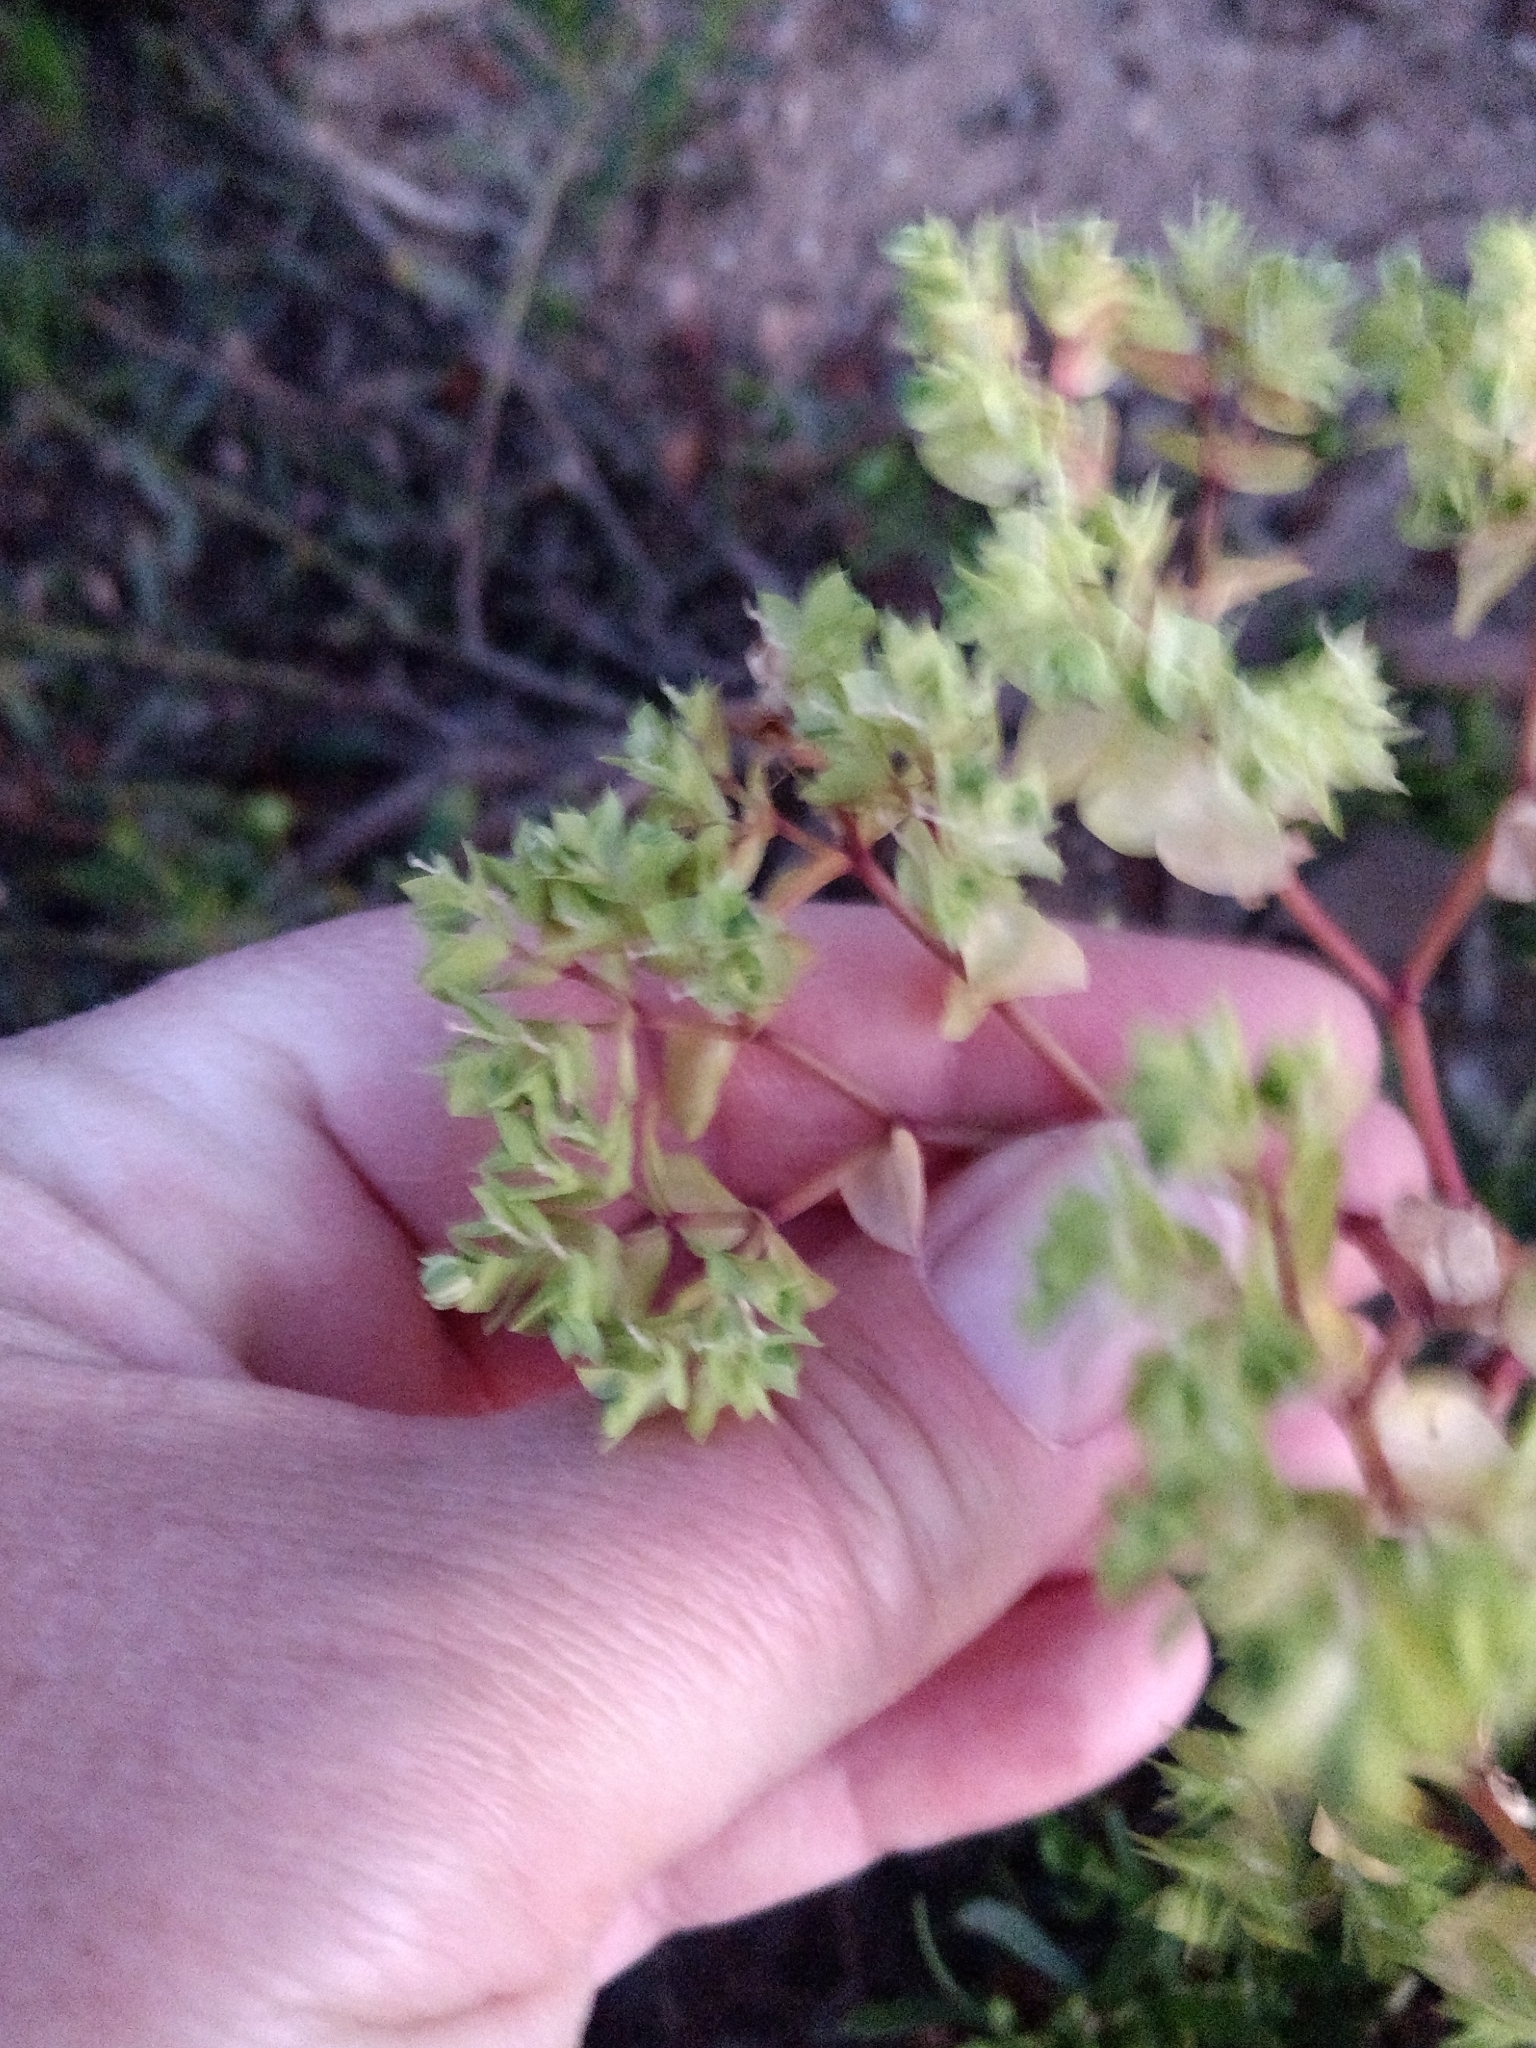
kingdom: Plantae
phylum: Tracheophyta
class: Magnoliopsida
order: Malpighiales
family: Euphorbiaceae
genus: Euphorbia
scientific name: Euphorbia peplus
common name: Petty spurge
